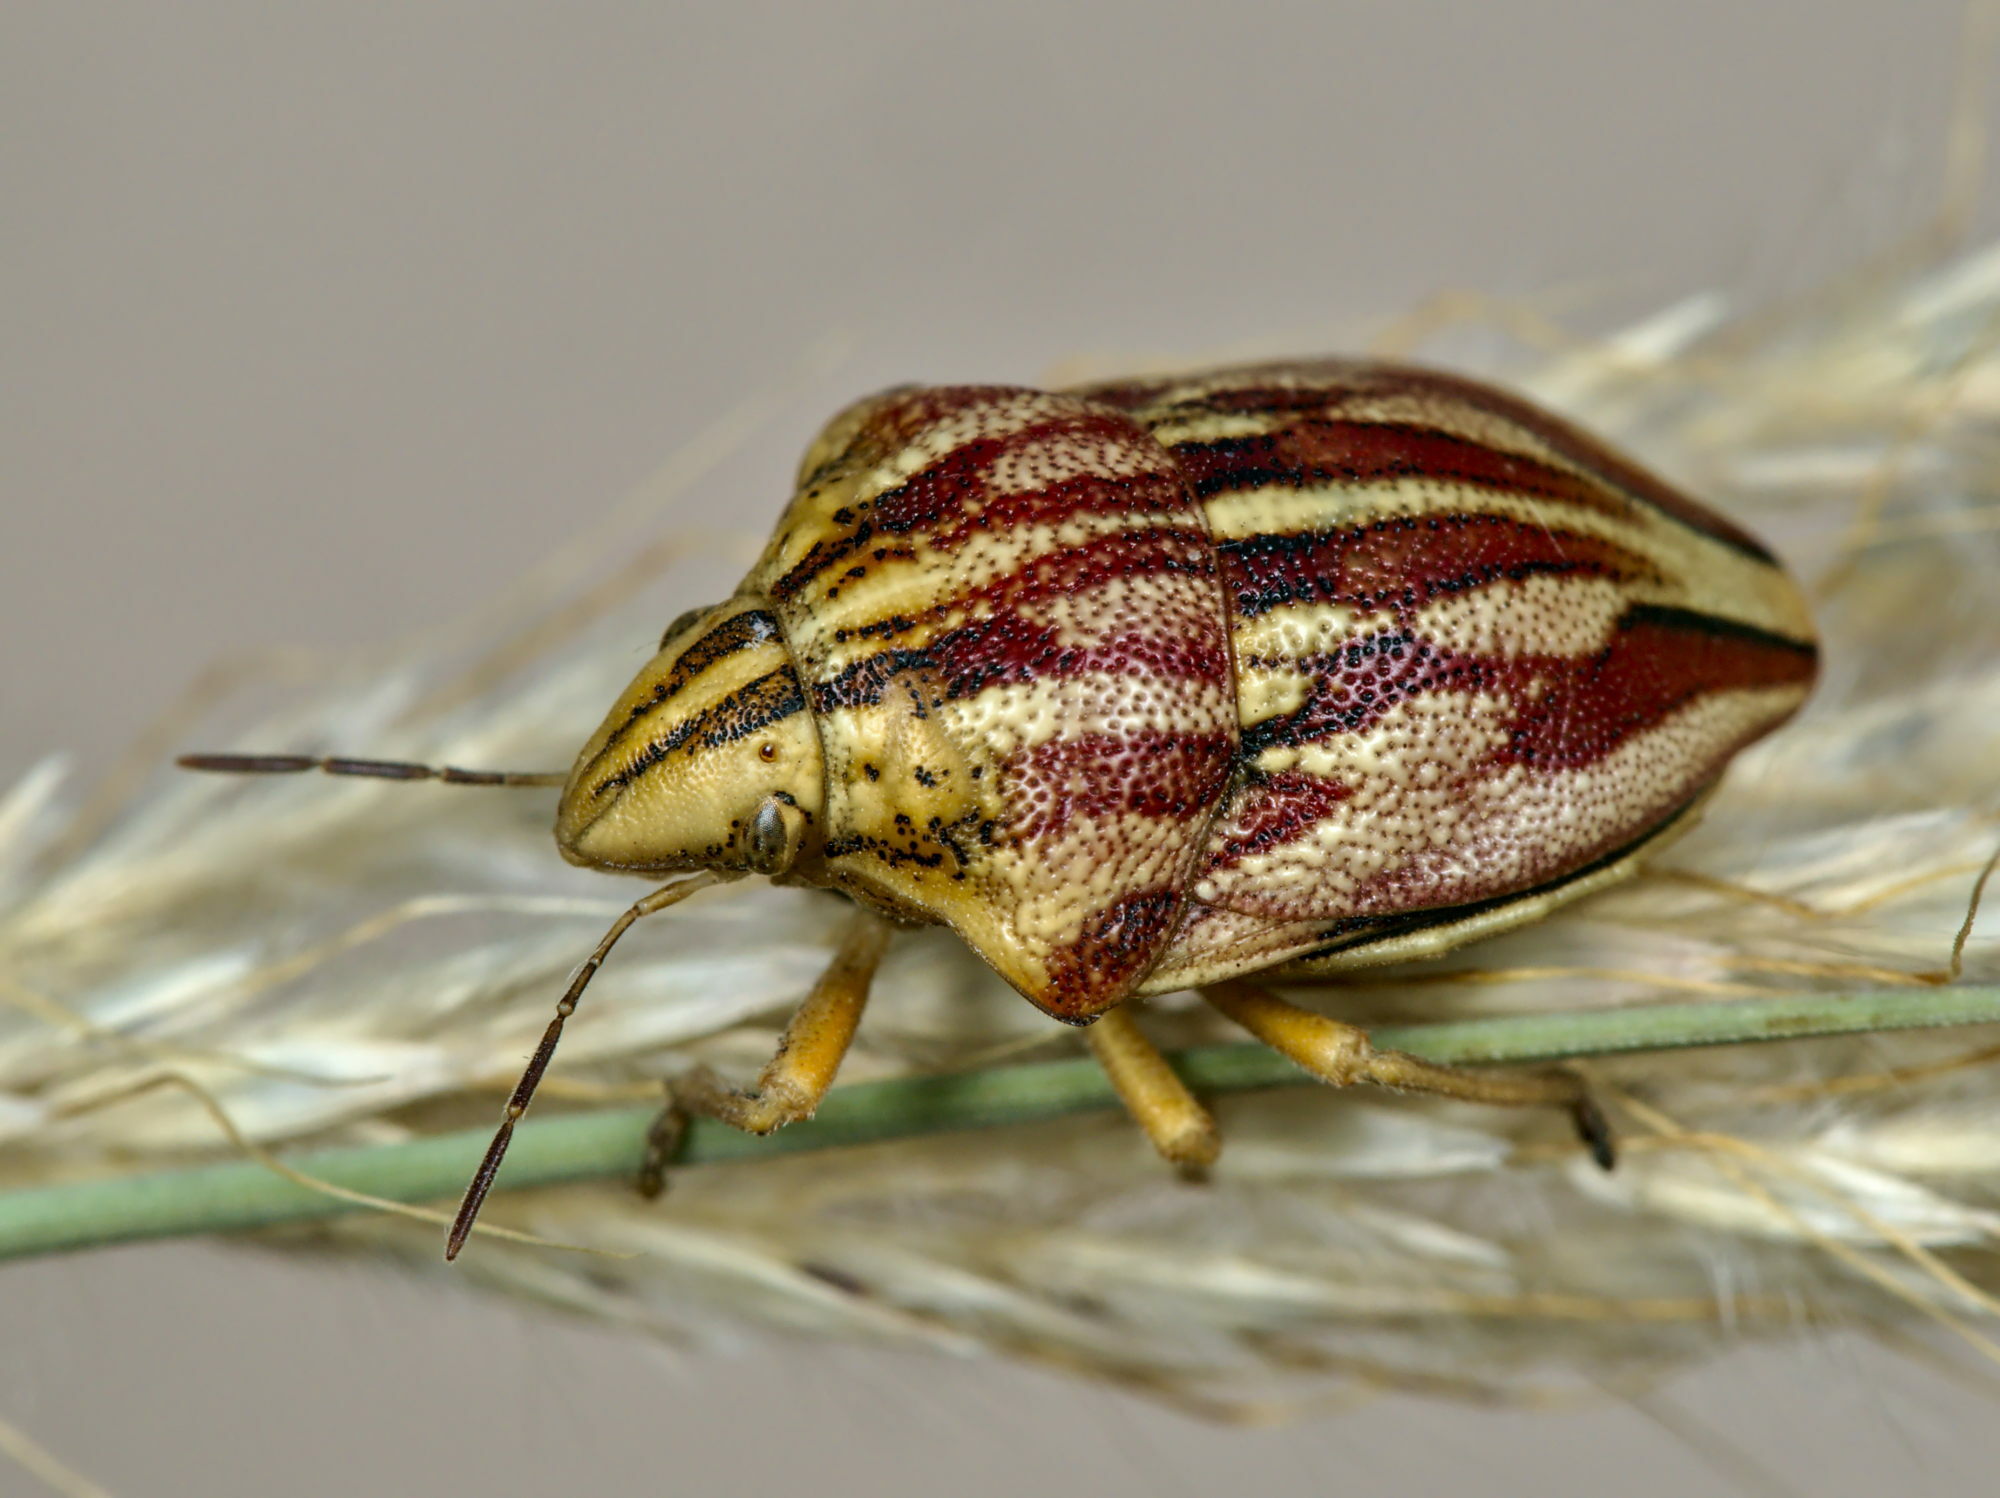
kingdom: Animalia
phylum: Arthropoda
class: Insecta
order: Hemiptera
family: Scutelleridae
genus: Odontotarsus
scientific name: Odontotarsus purpureolineatus
